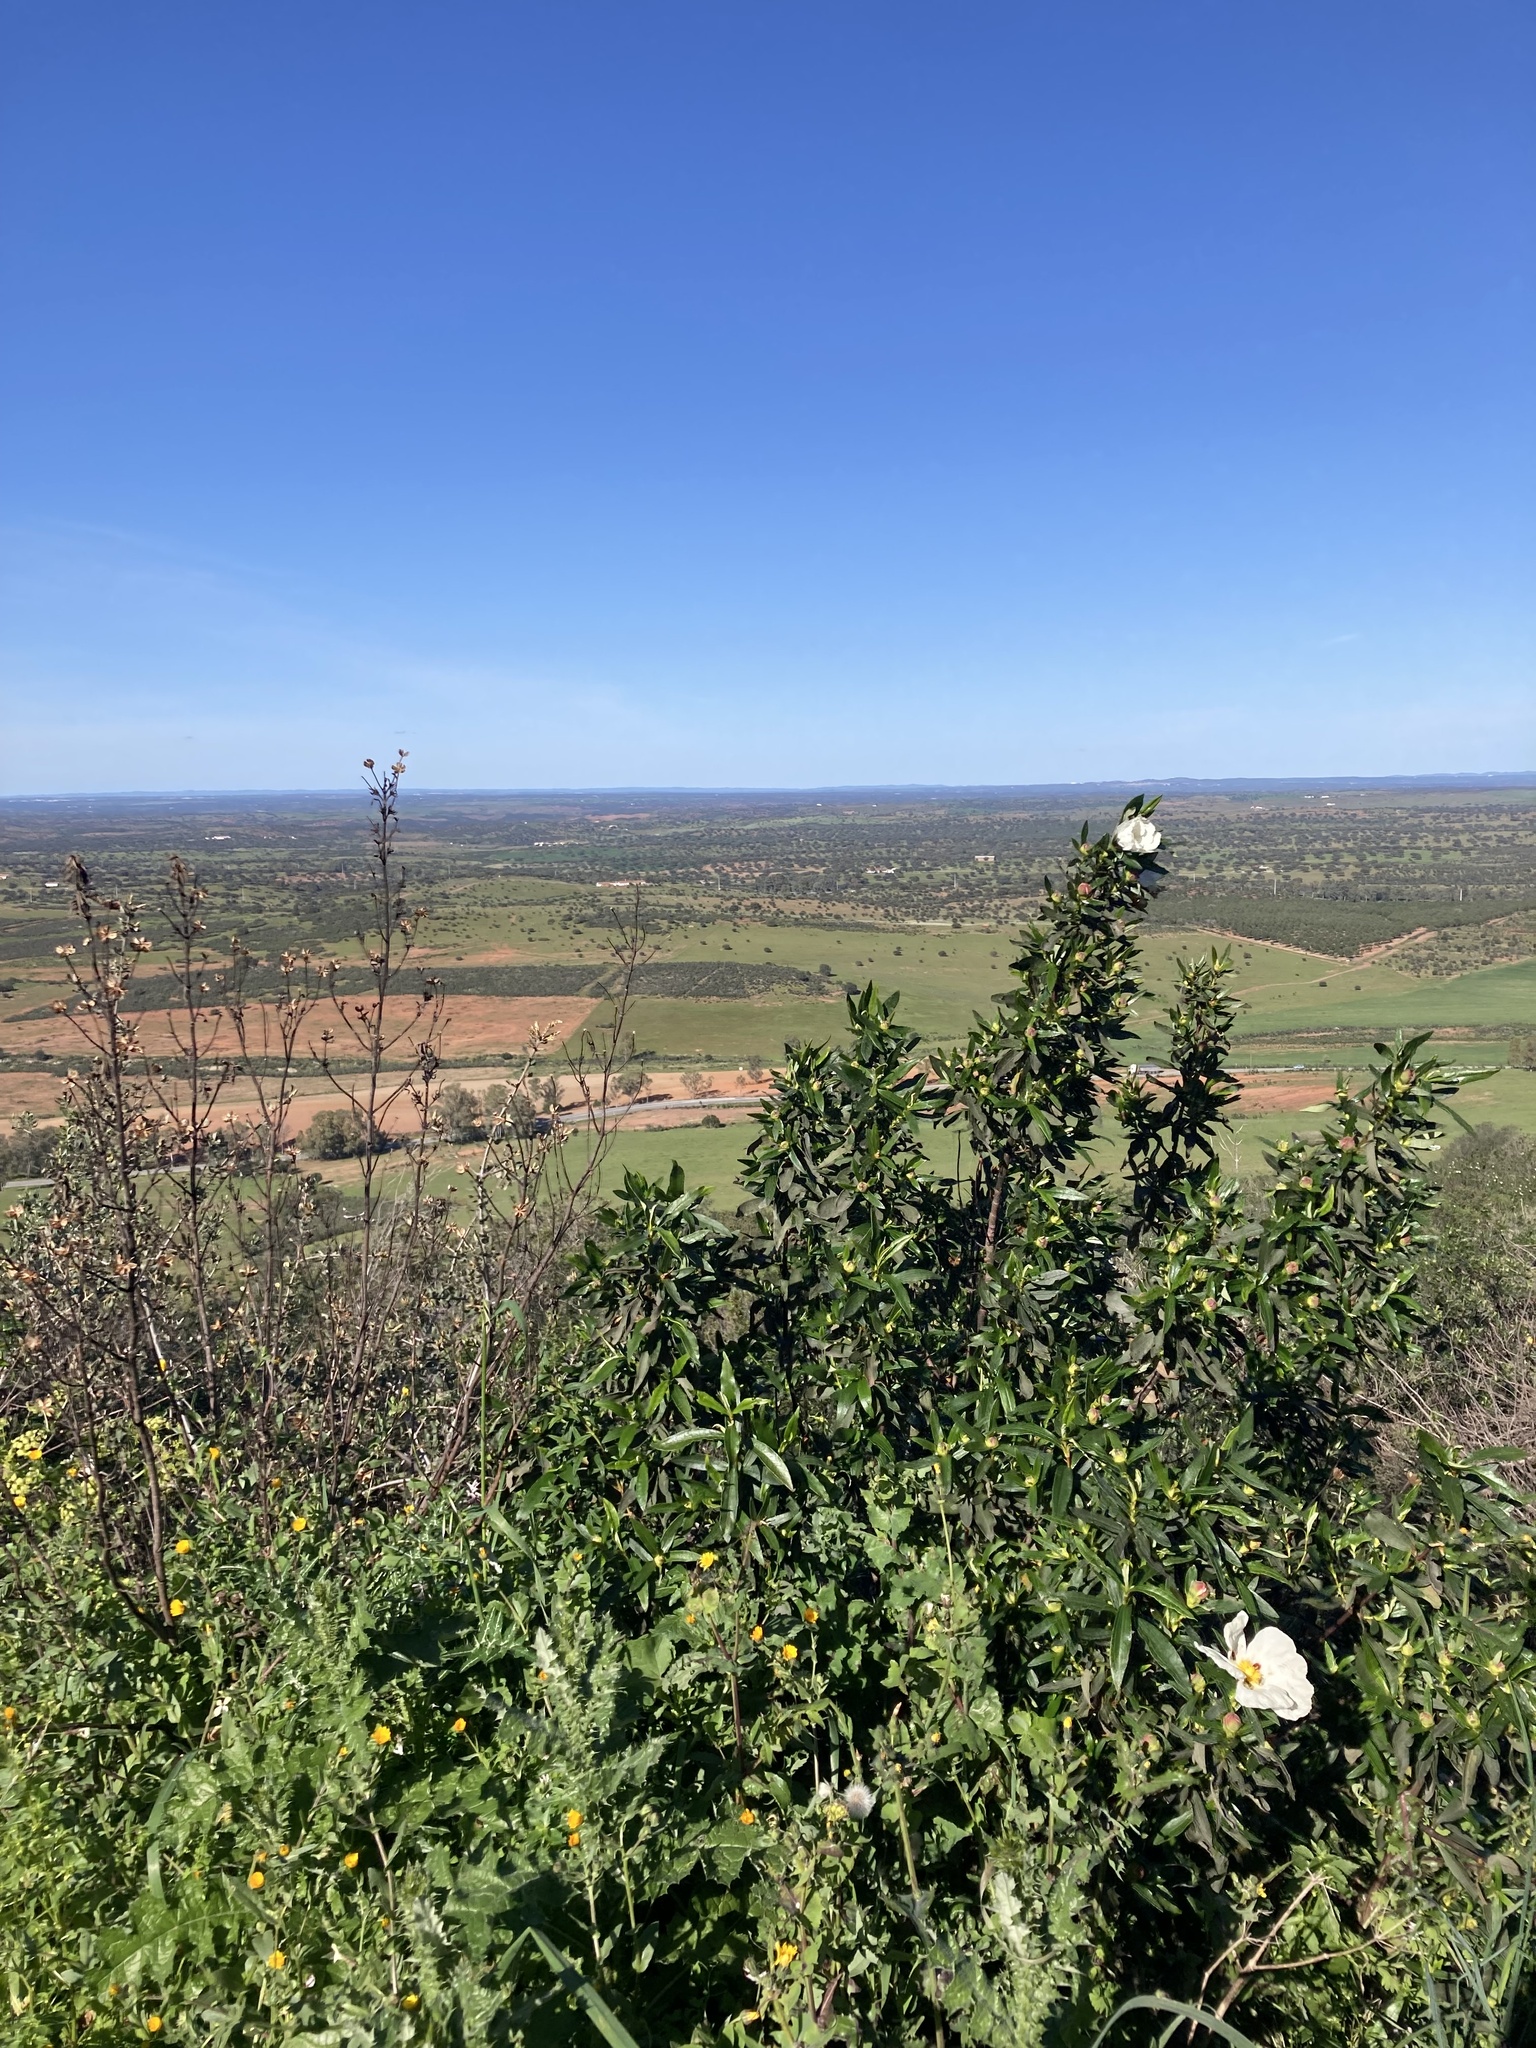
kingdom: Plantae
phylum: Tracheophyta
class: Magnoliopsida
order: Malvales
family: Cistaceae
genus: Cistus
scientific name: Cistus ladanifer
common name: Common gum cistus
